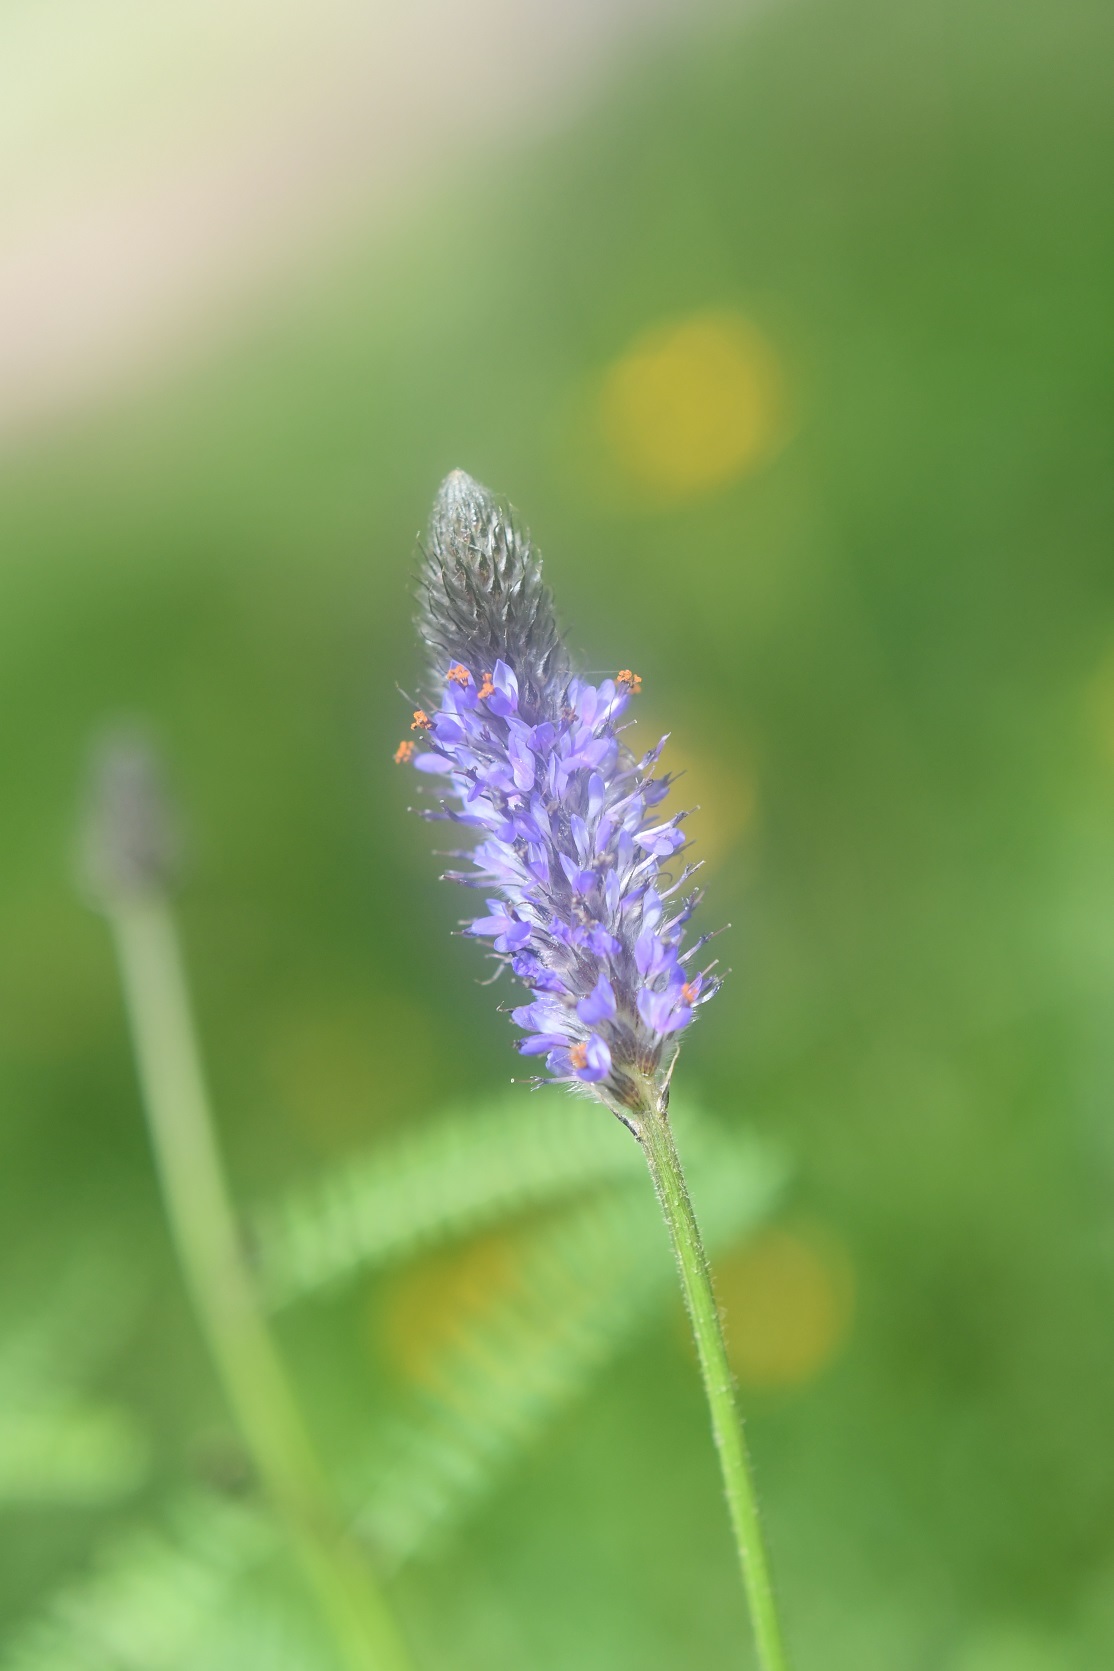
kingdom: Plantae
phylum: Tracheophyta
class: Magnoliopsida
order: Fabales
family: Fabaceae
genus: Dalea
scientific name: Dalea leporina
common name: Foxtail dalea
